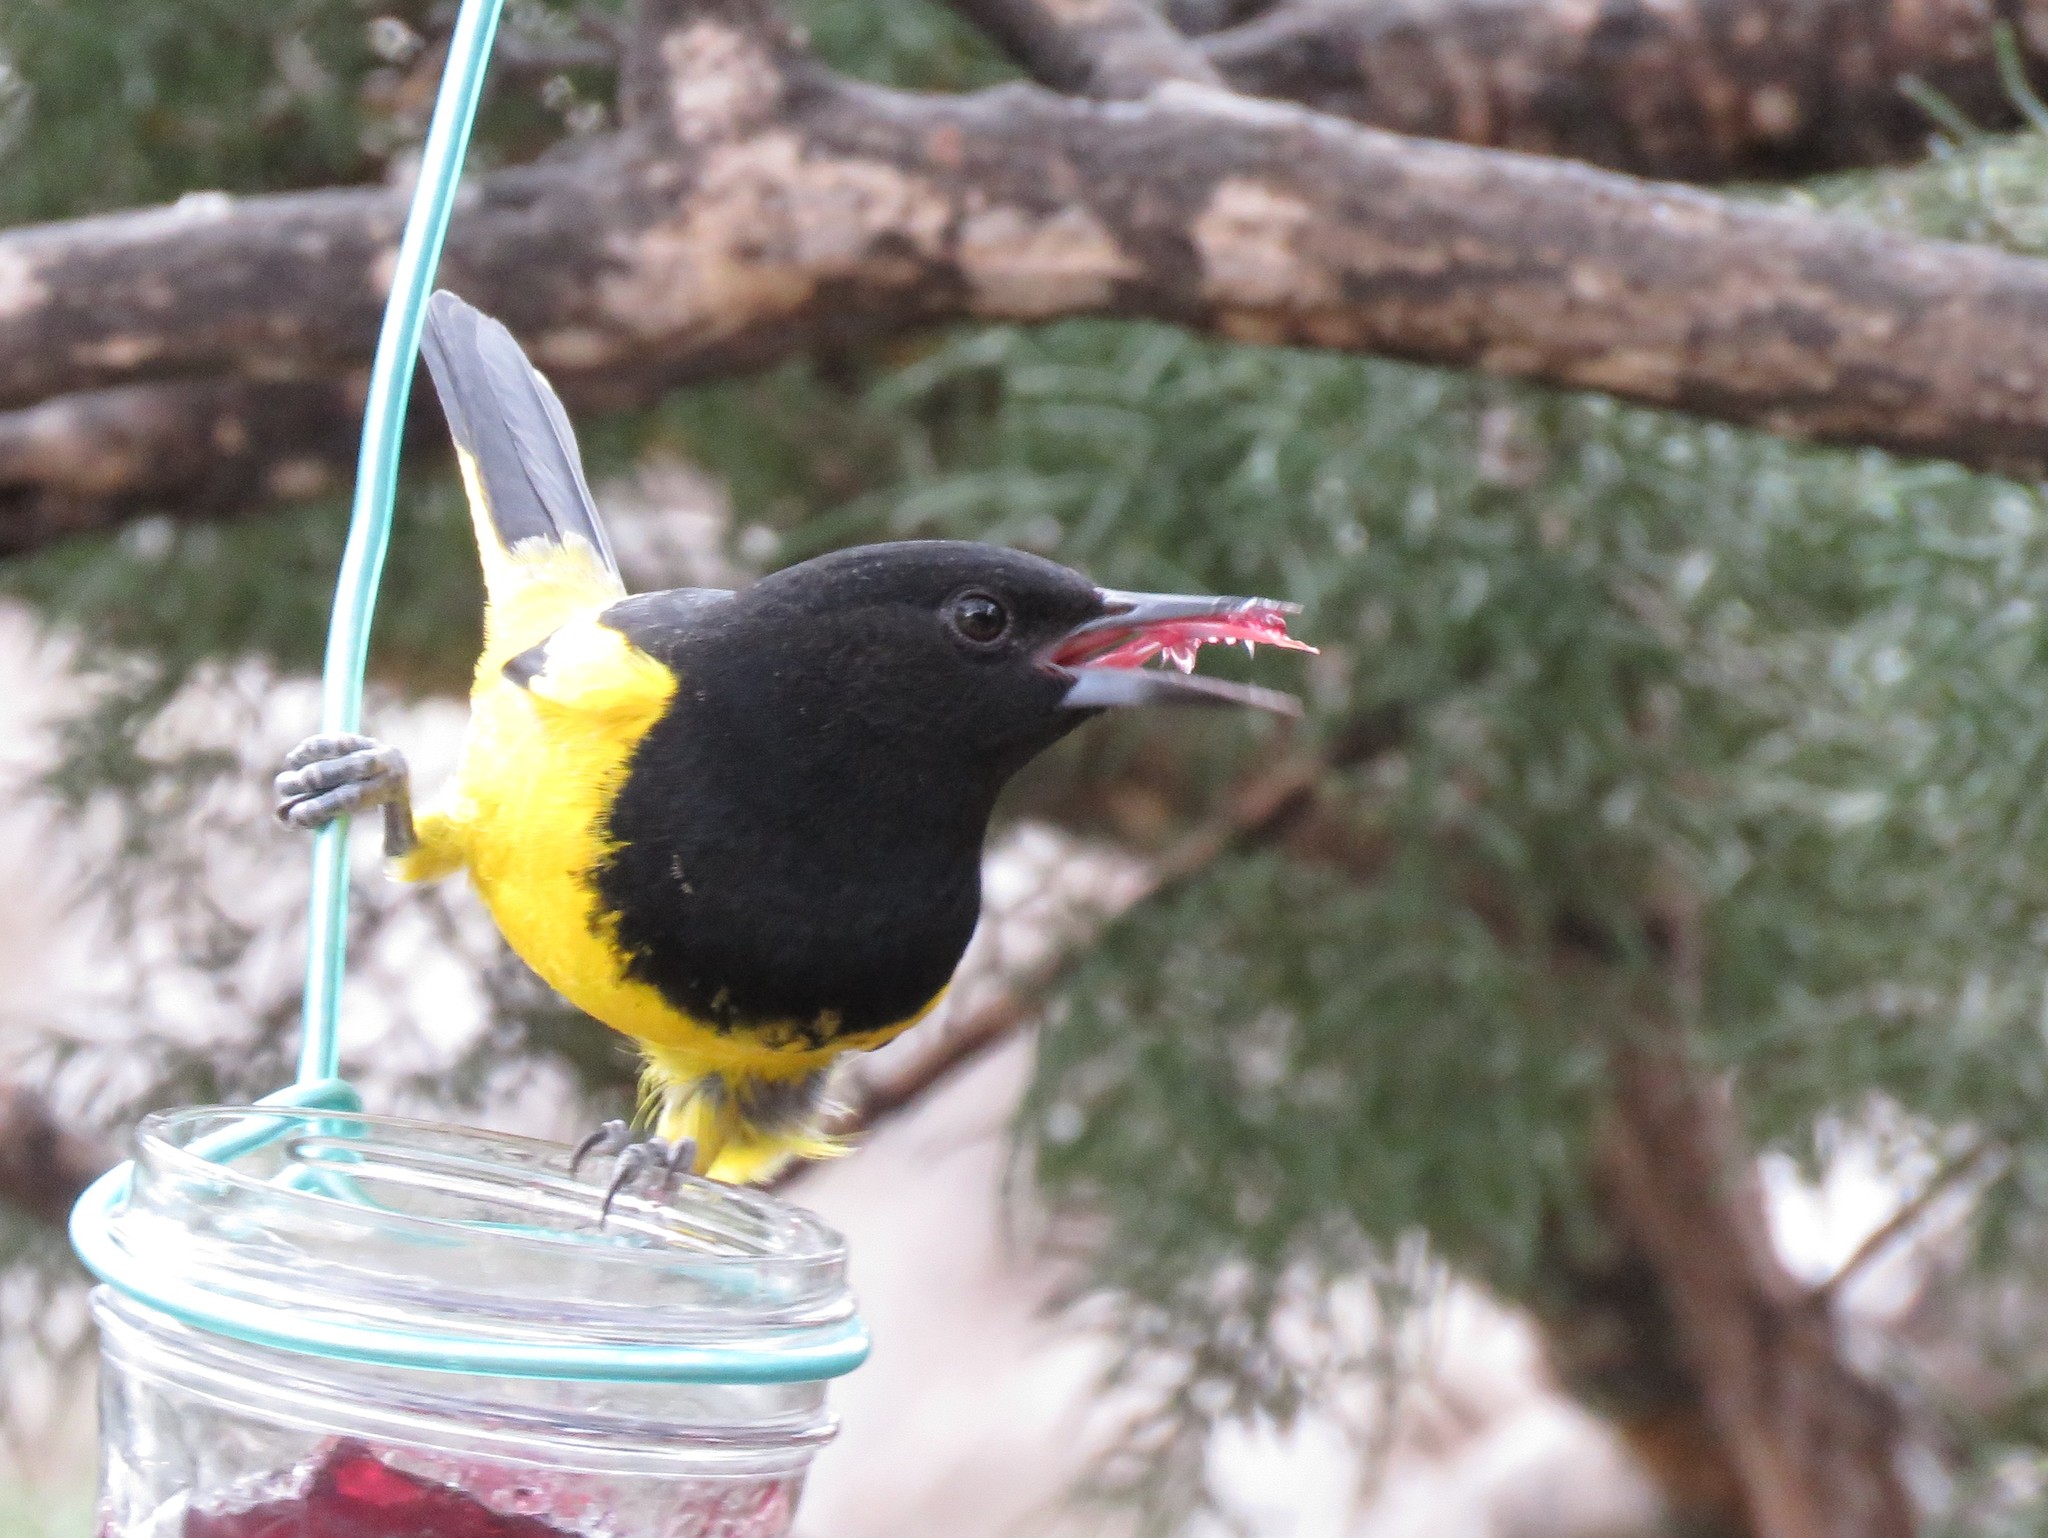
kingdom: Animalia
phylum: Chordata
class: Aves
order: Passeriformes
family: Icteridae
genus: Icterus
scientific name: Icterus parisorum
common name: Scott's oriole
